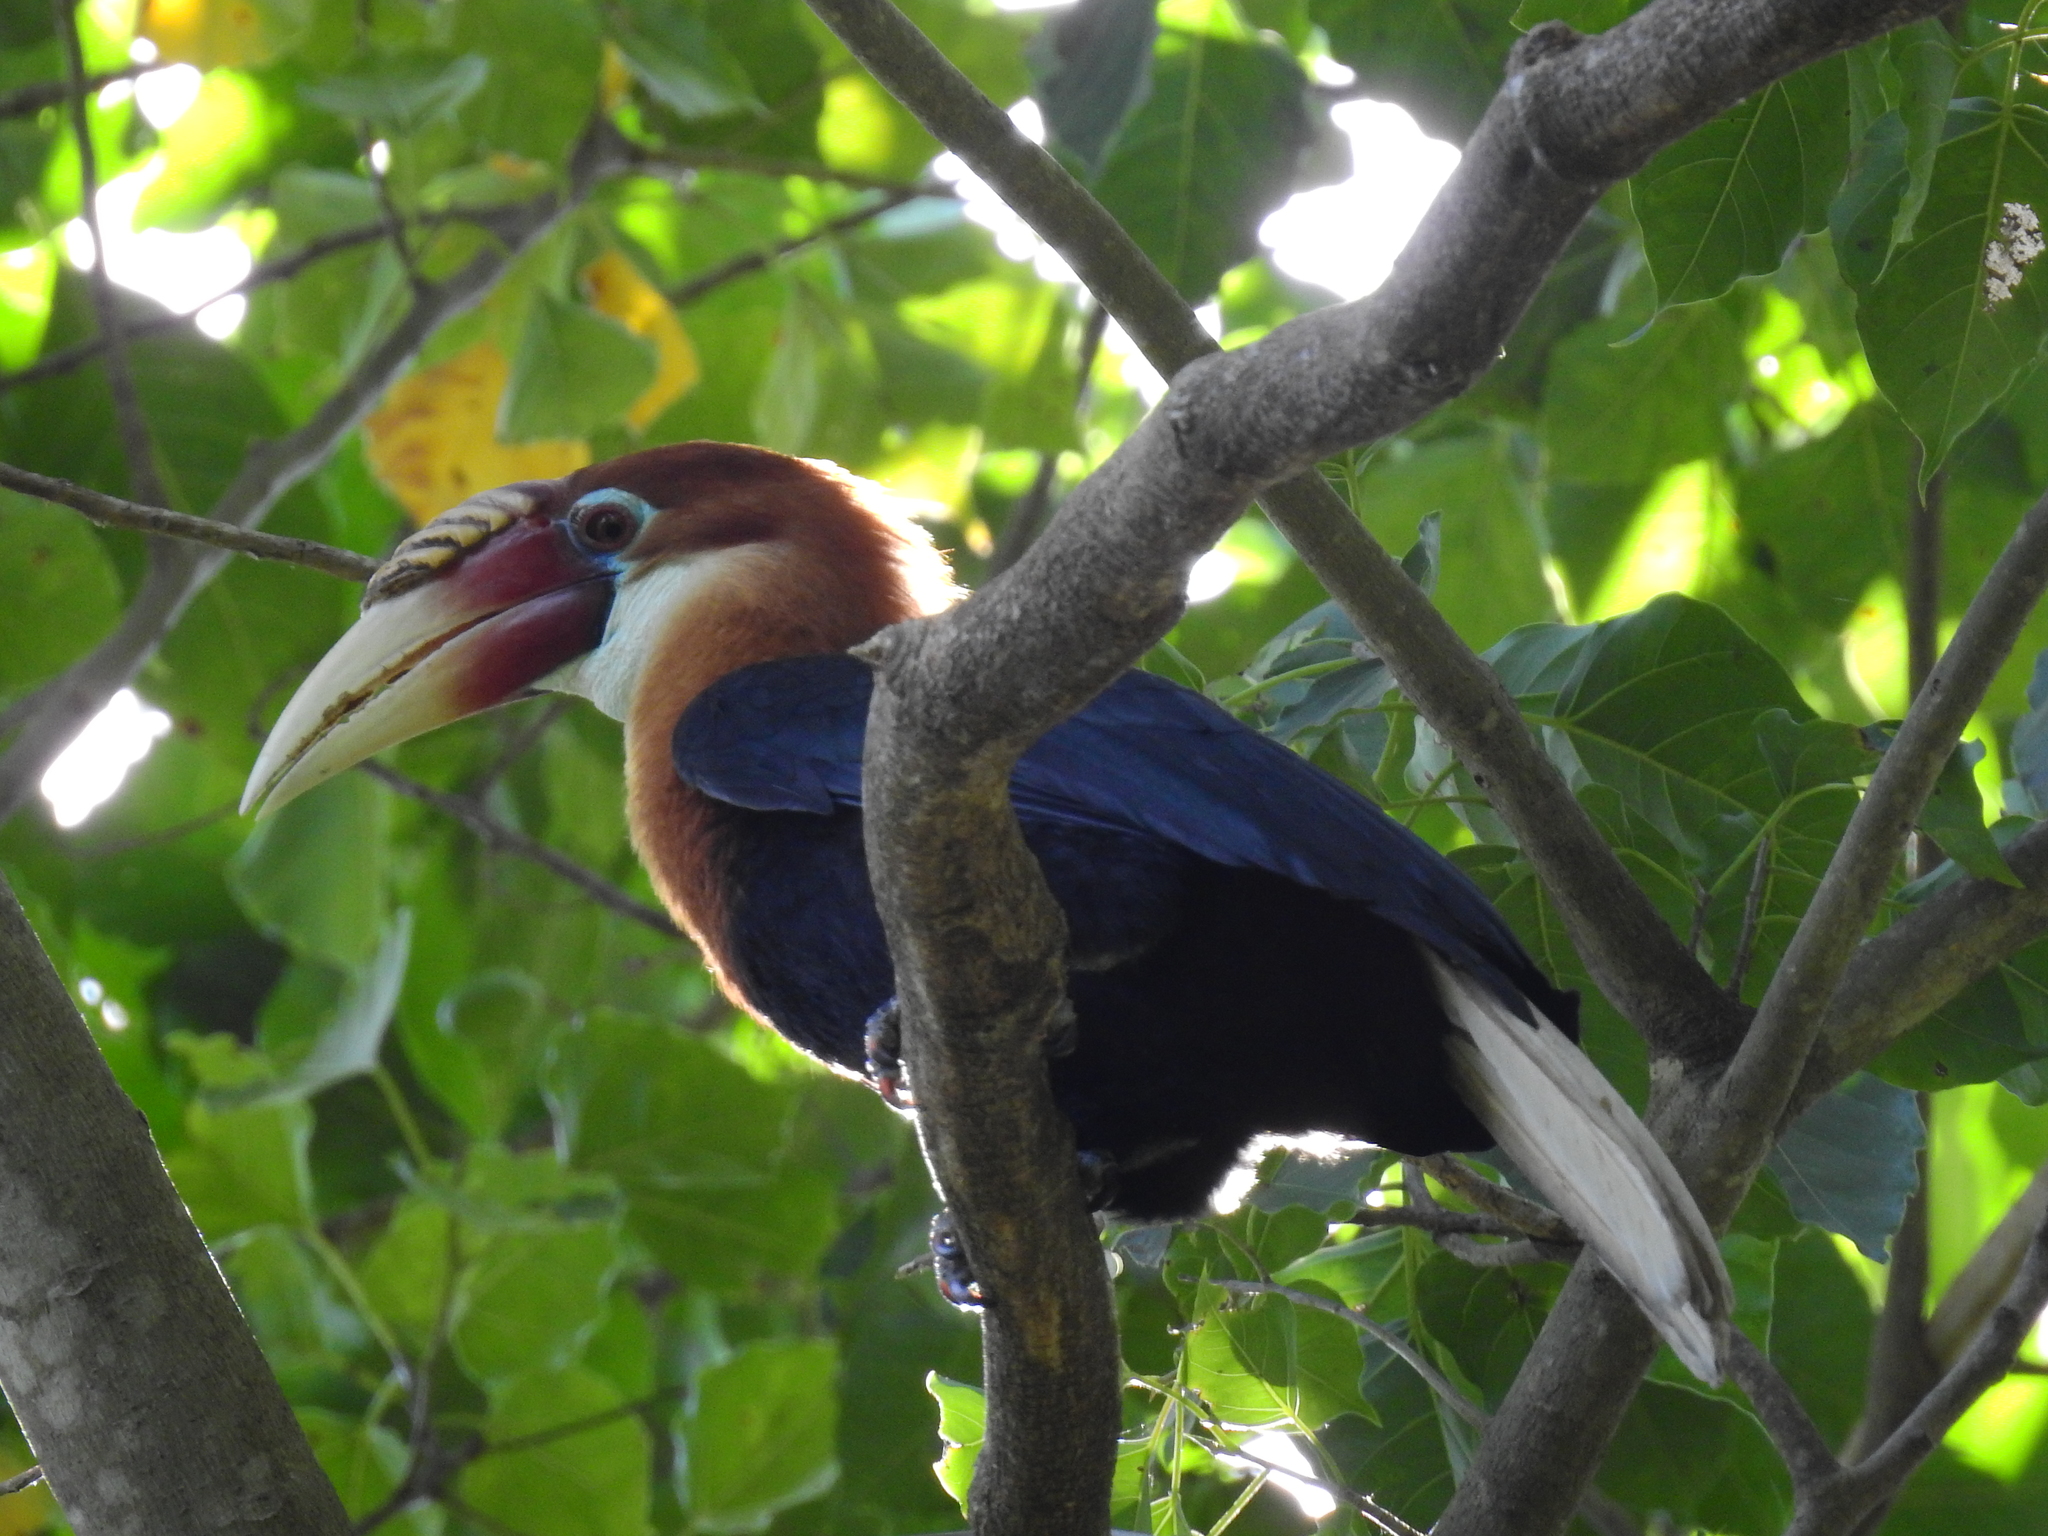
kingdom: Animalia
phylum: Chordata
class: Aves
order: Bucerotiformes
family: Bucerotidae
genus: Rhyticeros
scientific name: Rhyticeros narcondami
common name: Narcondam hornbill
